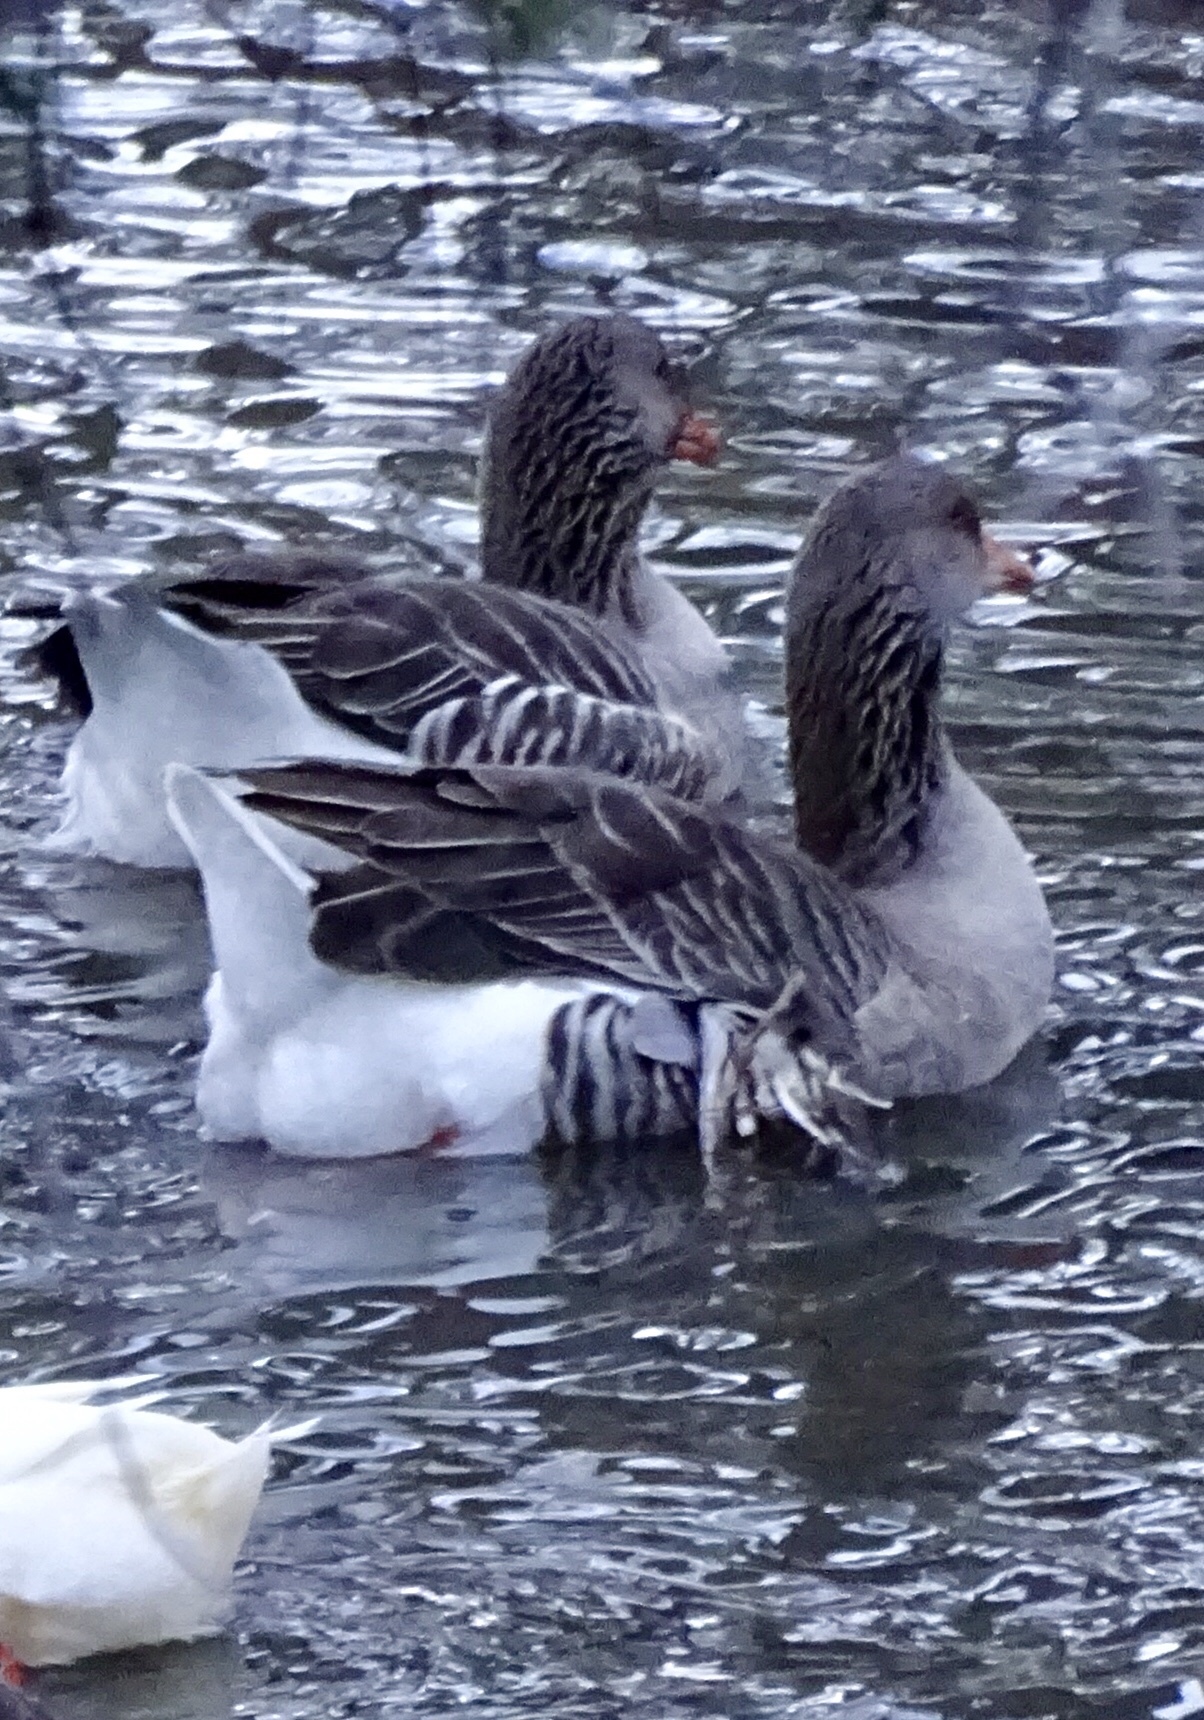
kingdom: Animalia
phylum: Chordata
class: Aves
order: Anseriformes
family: Anatidae
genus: Anser
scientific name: Anser anser
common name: Greylag goose
